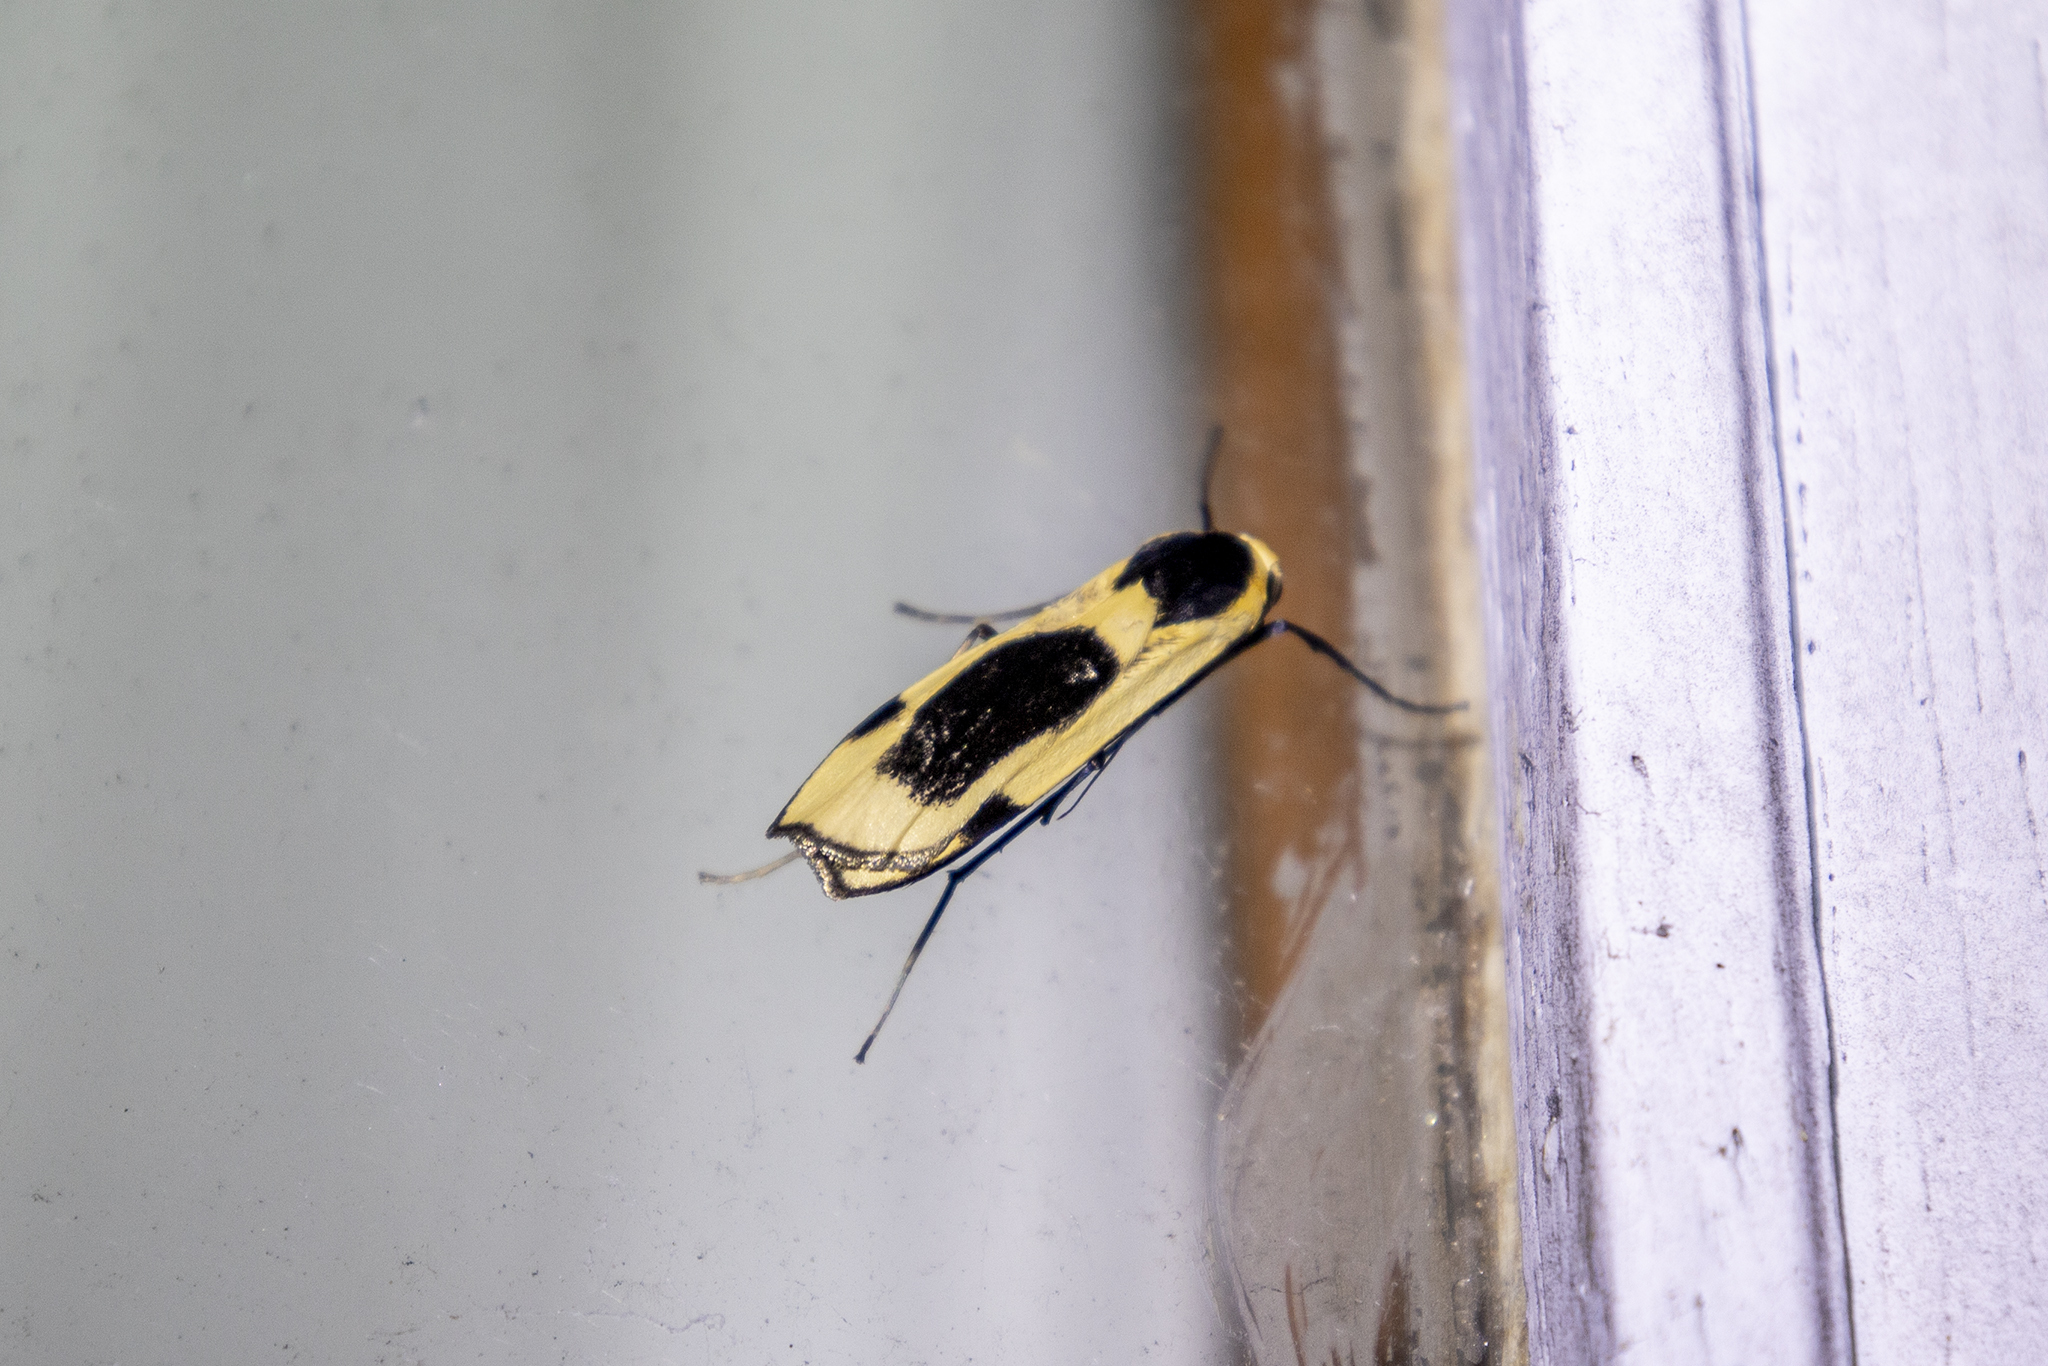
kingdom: Animalia
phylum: Arthropoda
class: Insecta
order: Lepidoptera
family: Erebidae
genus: Thysanoptyx
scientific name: Thysanoptyx sordida
